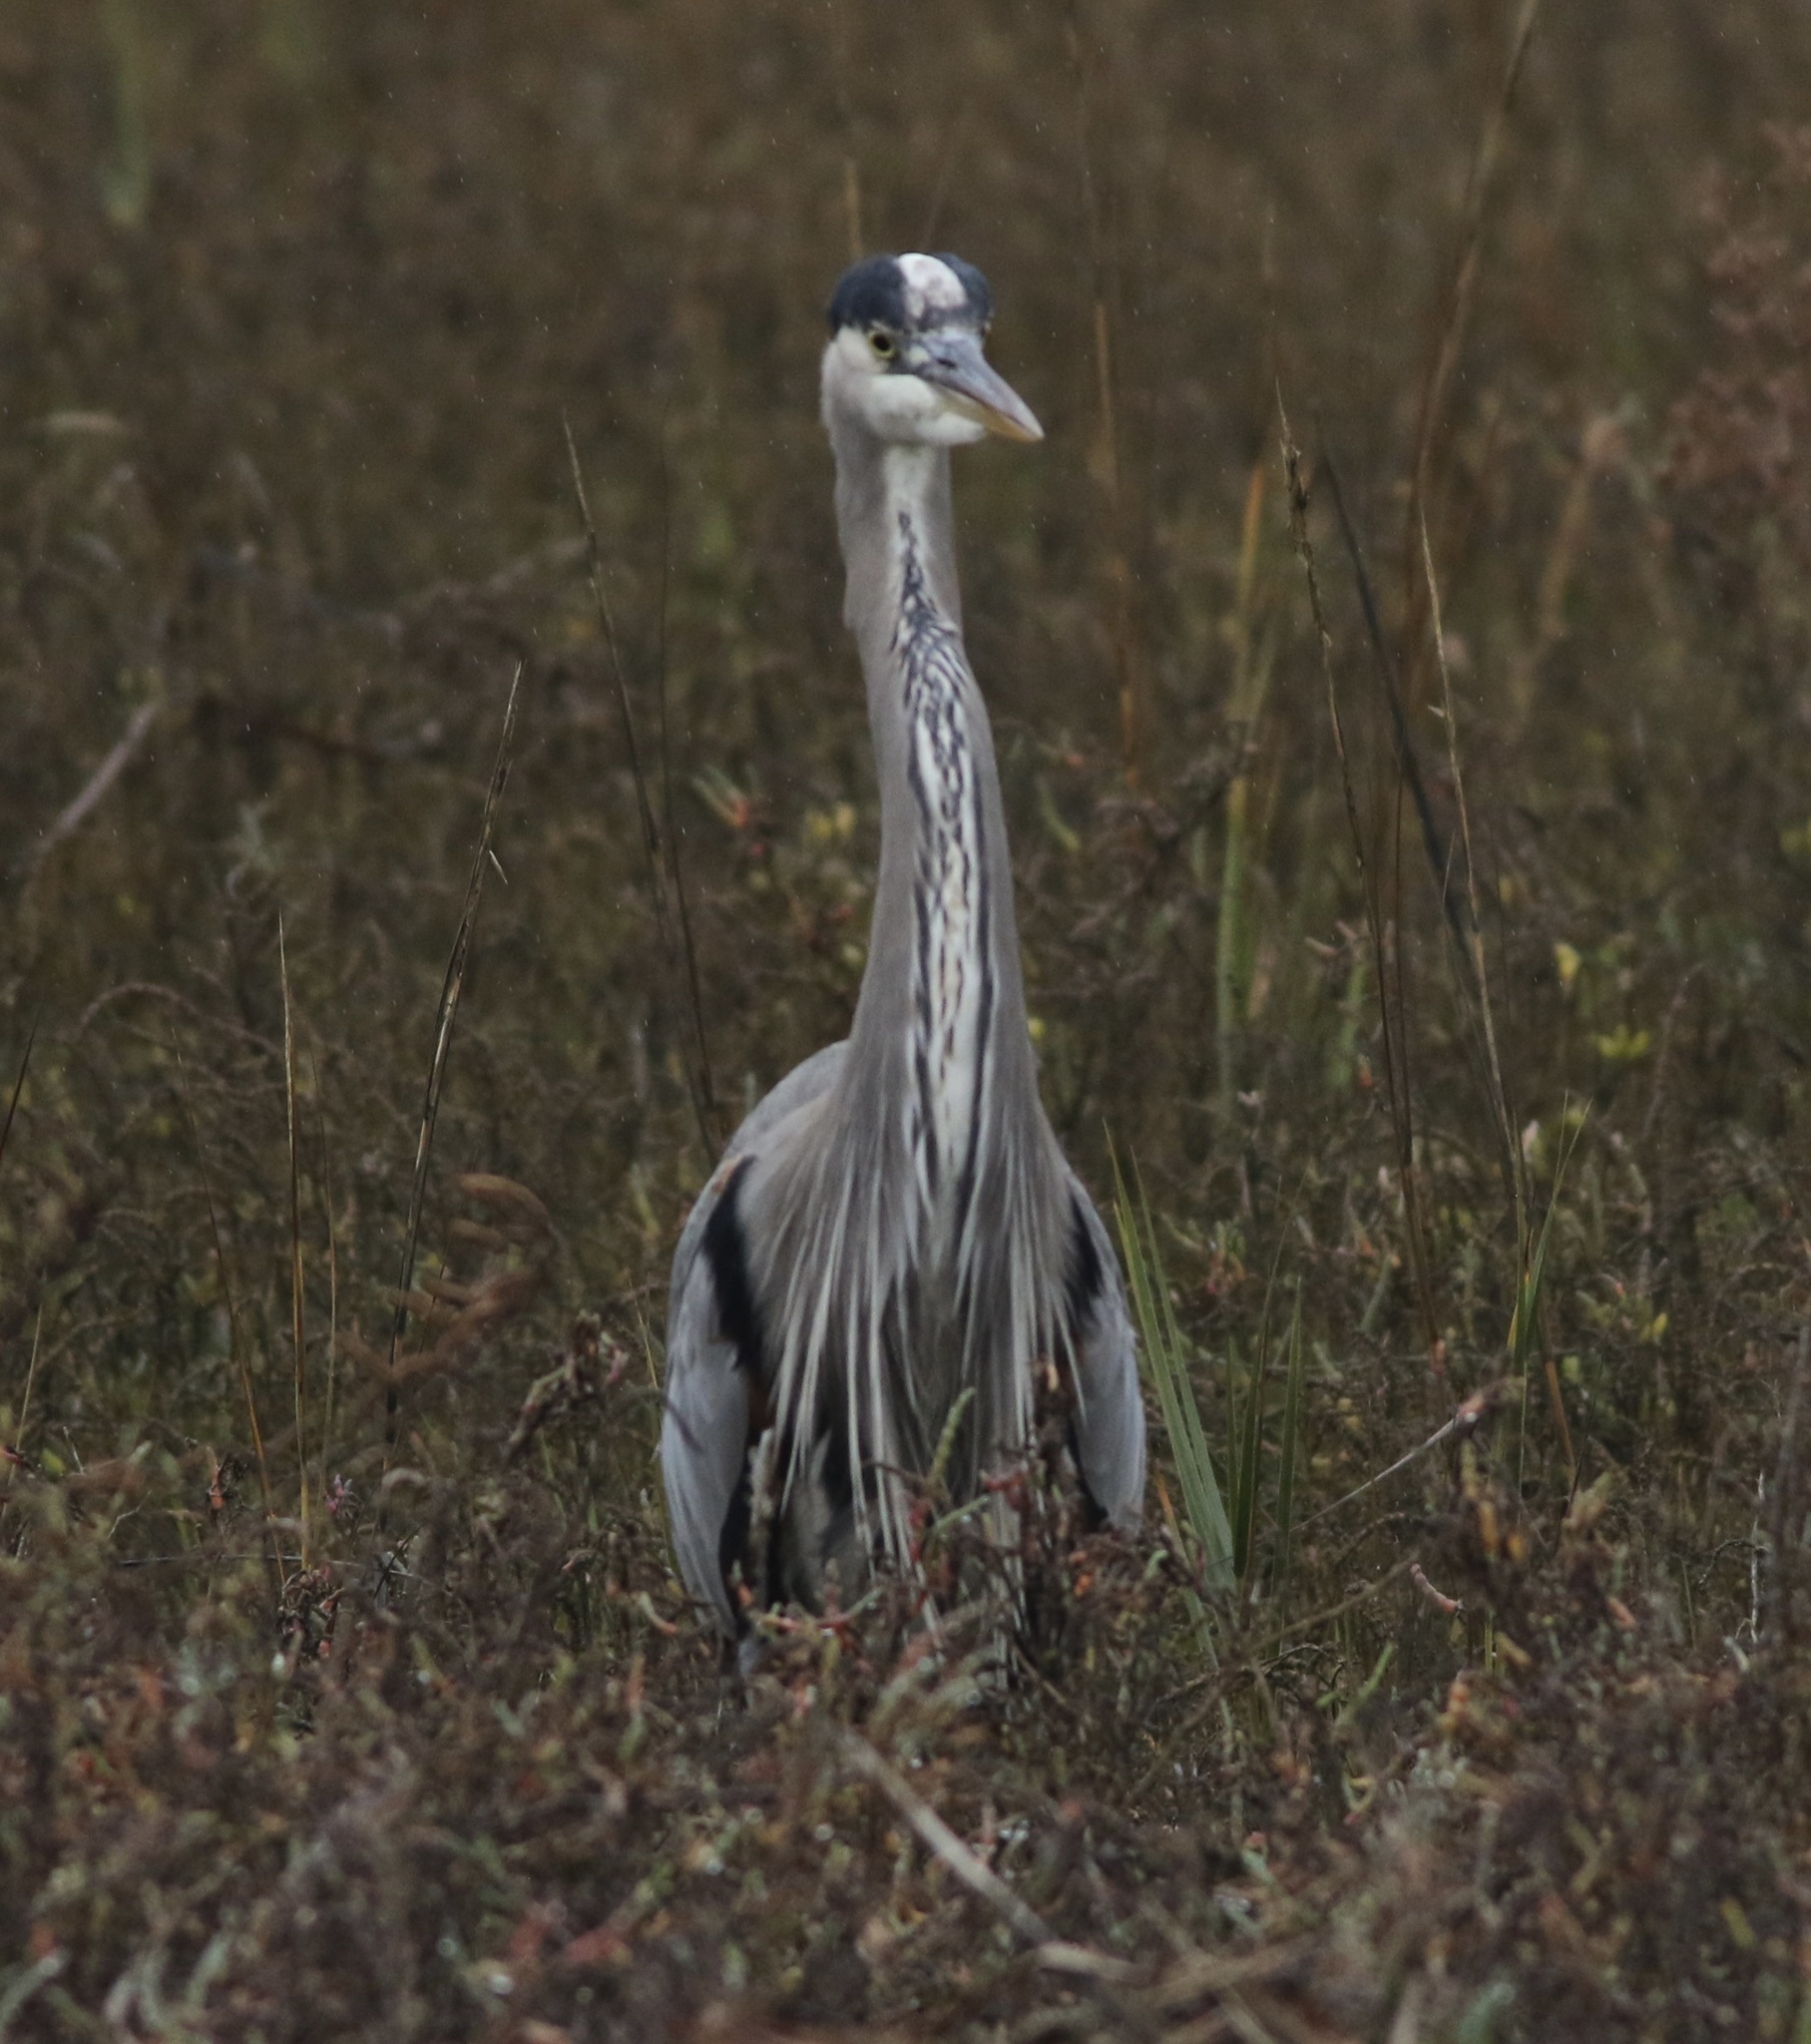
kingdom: Animalia
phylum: Chordata
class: Aves
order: Pelecaniformes
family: Ardeidae
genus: Ardea
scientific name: Ardea herodias
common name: Great blue heron
